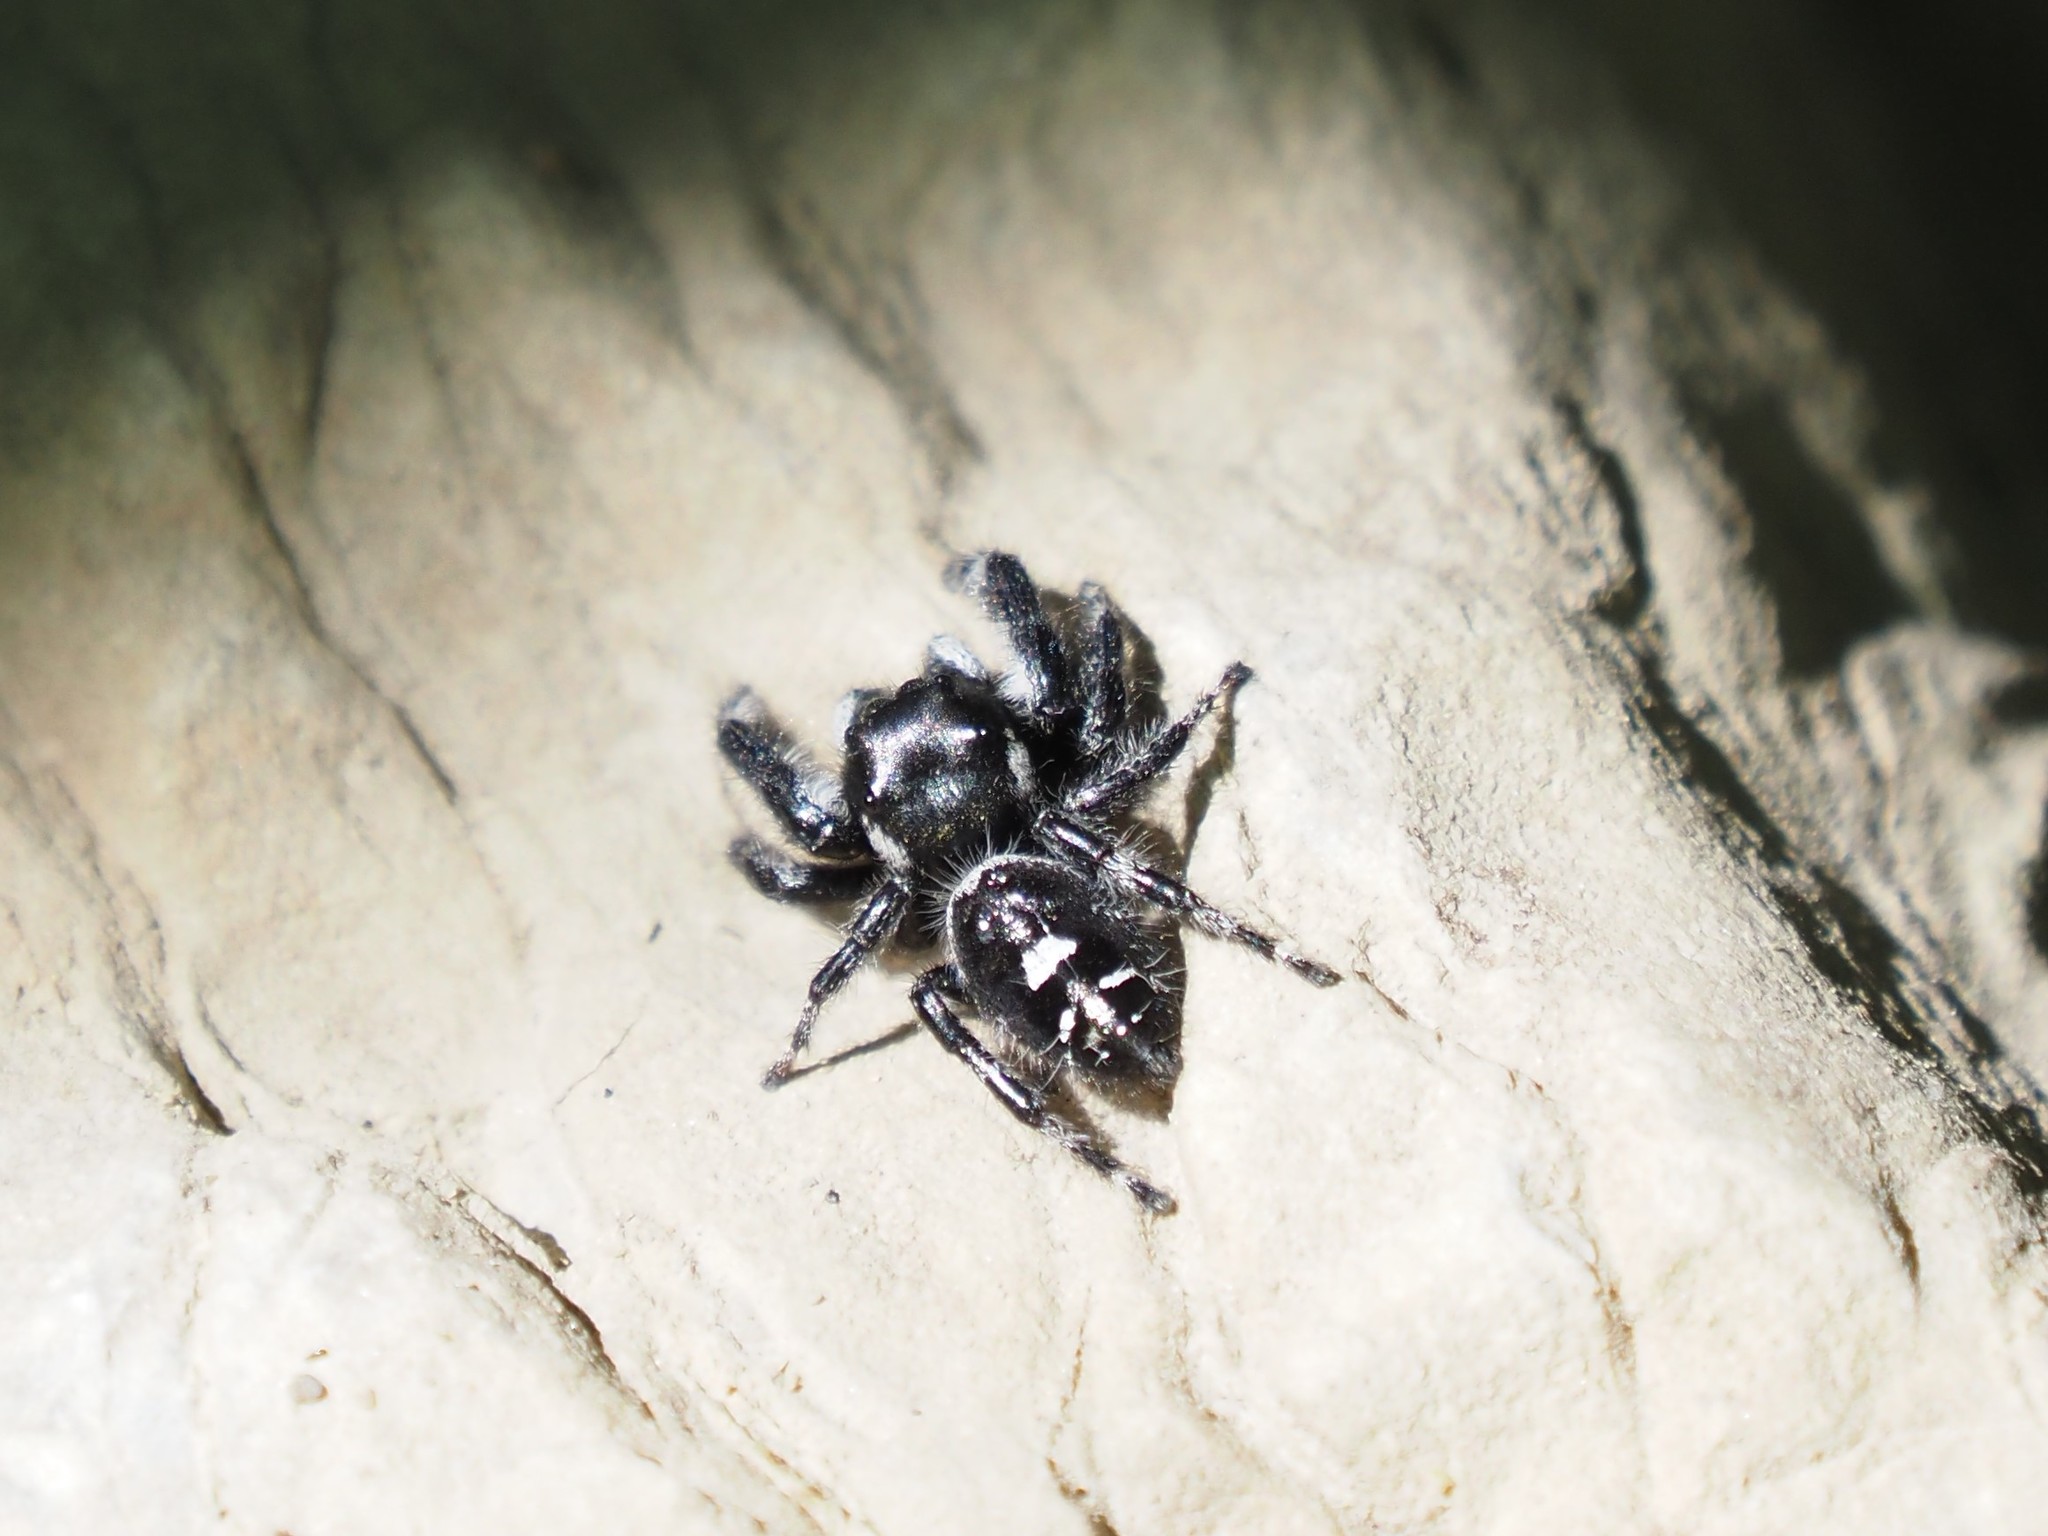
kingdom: Animalia
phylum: Arthropoda
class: Arachnida
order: Araneae
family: Salticidae
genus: Phidippus
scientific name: Phidippus audax
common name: Bold jumper
